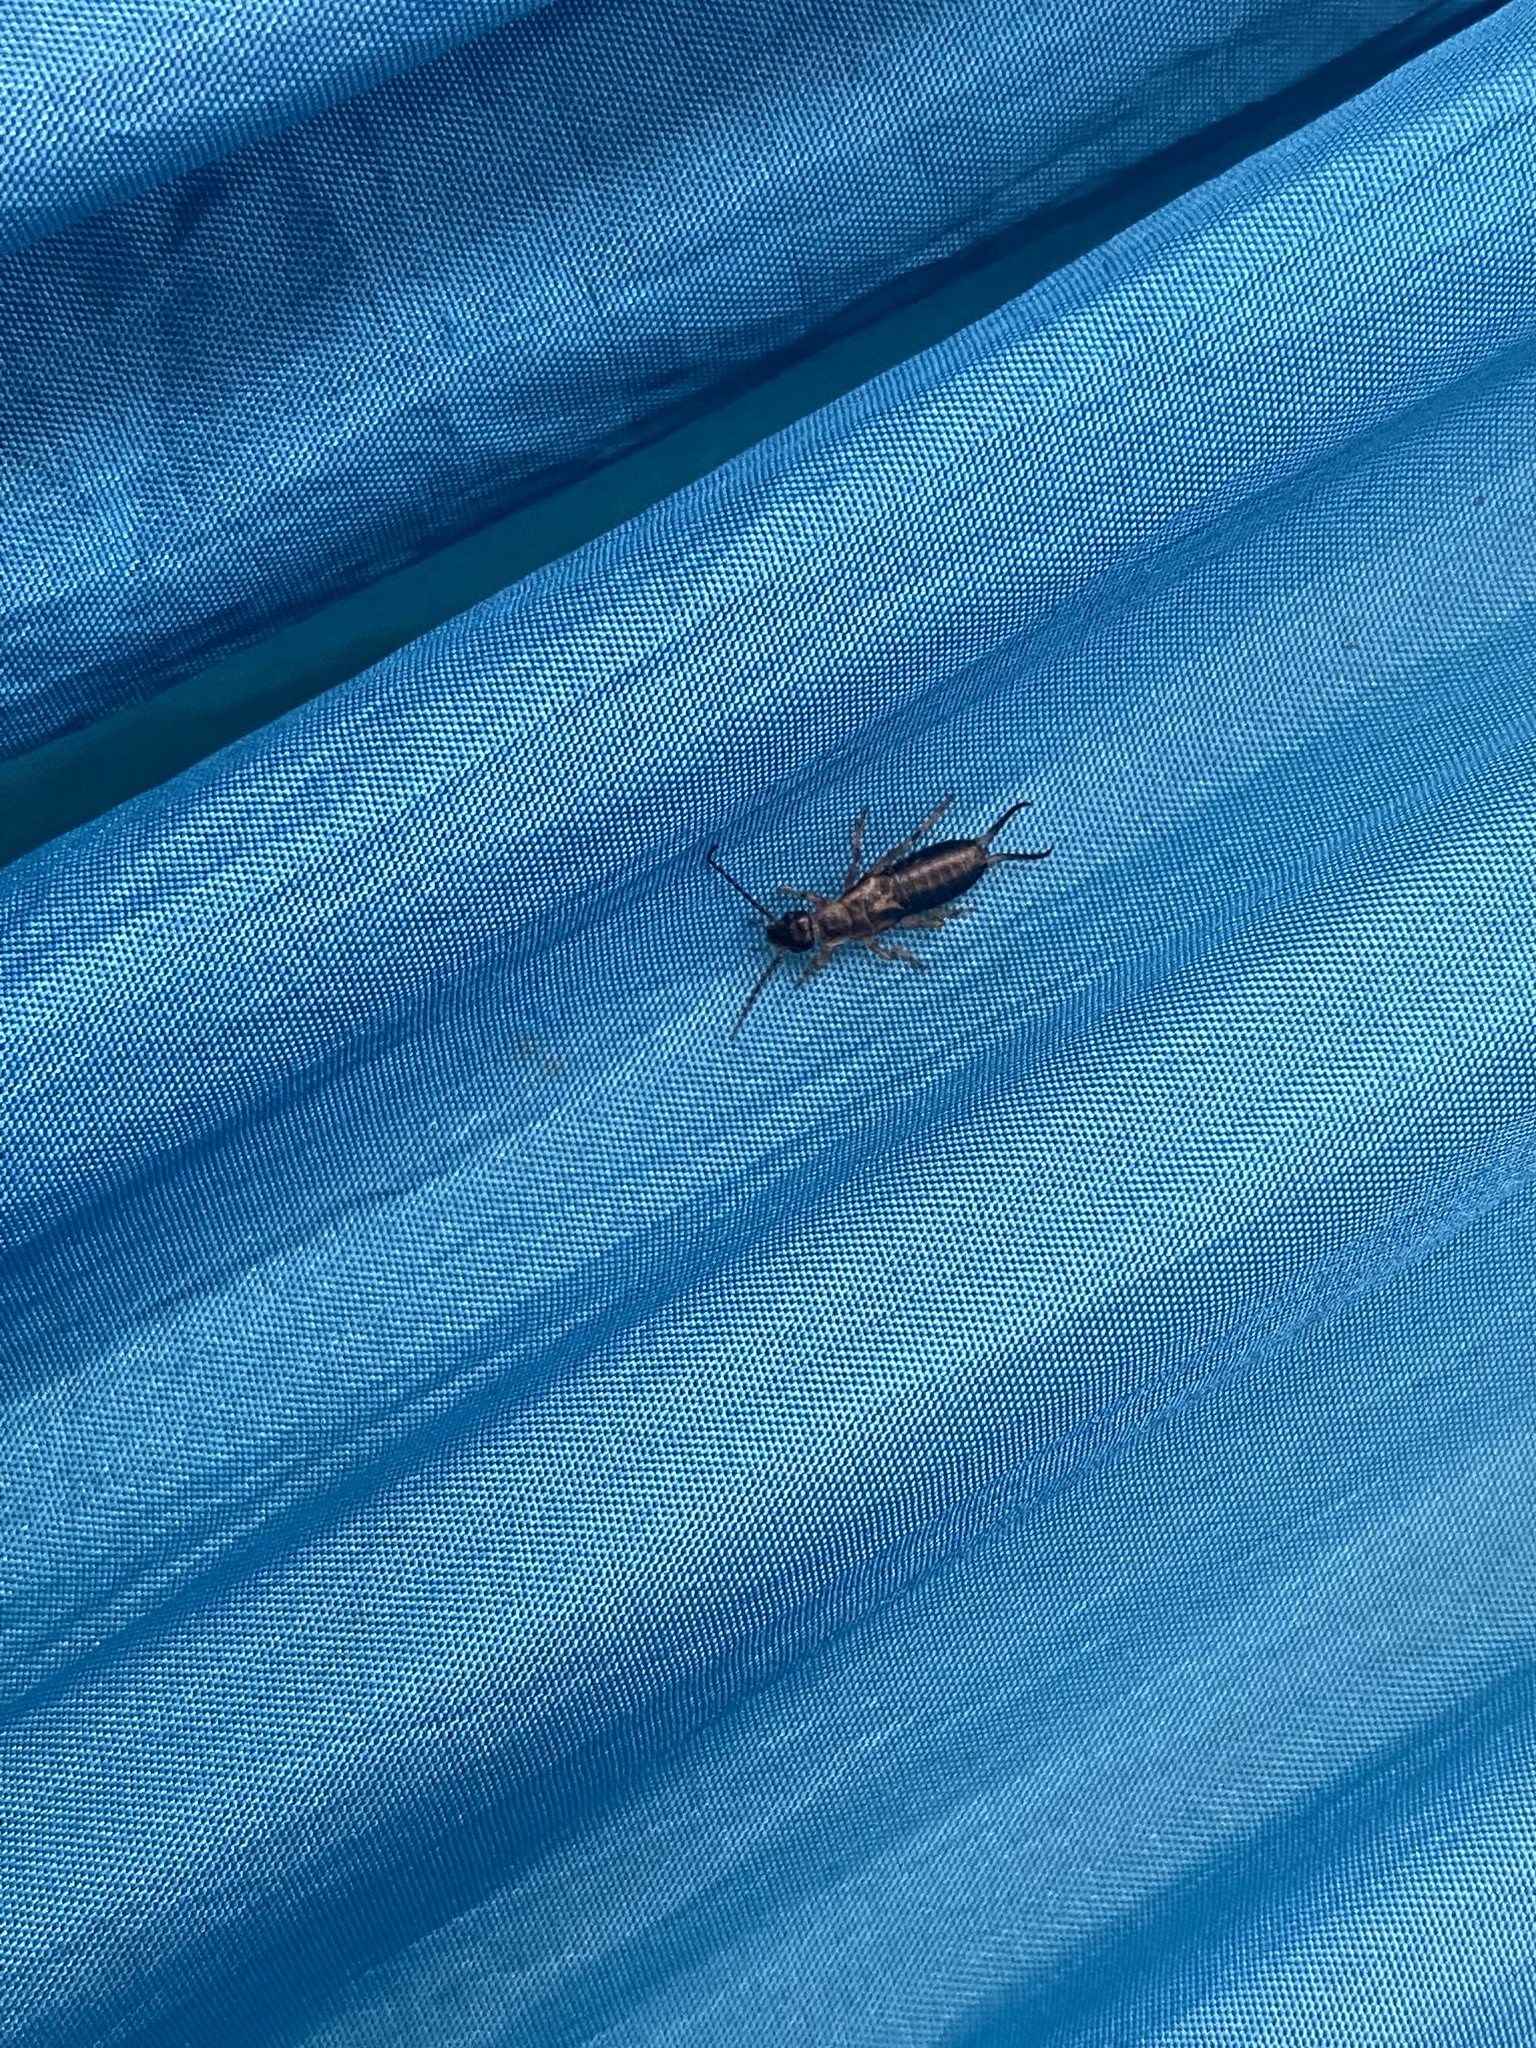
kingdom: Animalia
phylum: Arthropoda
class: Insecta
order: Dermaptera
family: Forficulidae
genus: Forficula
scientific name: Forficula
